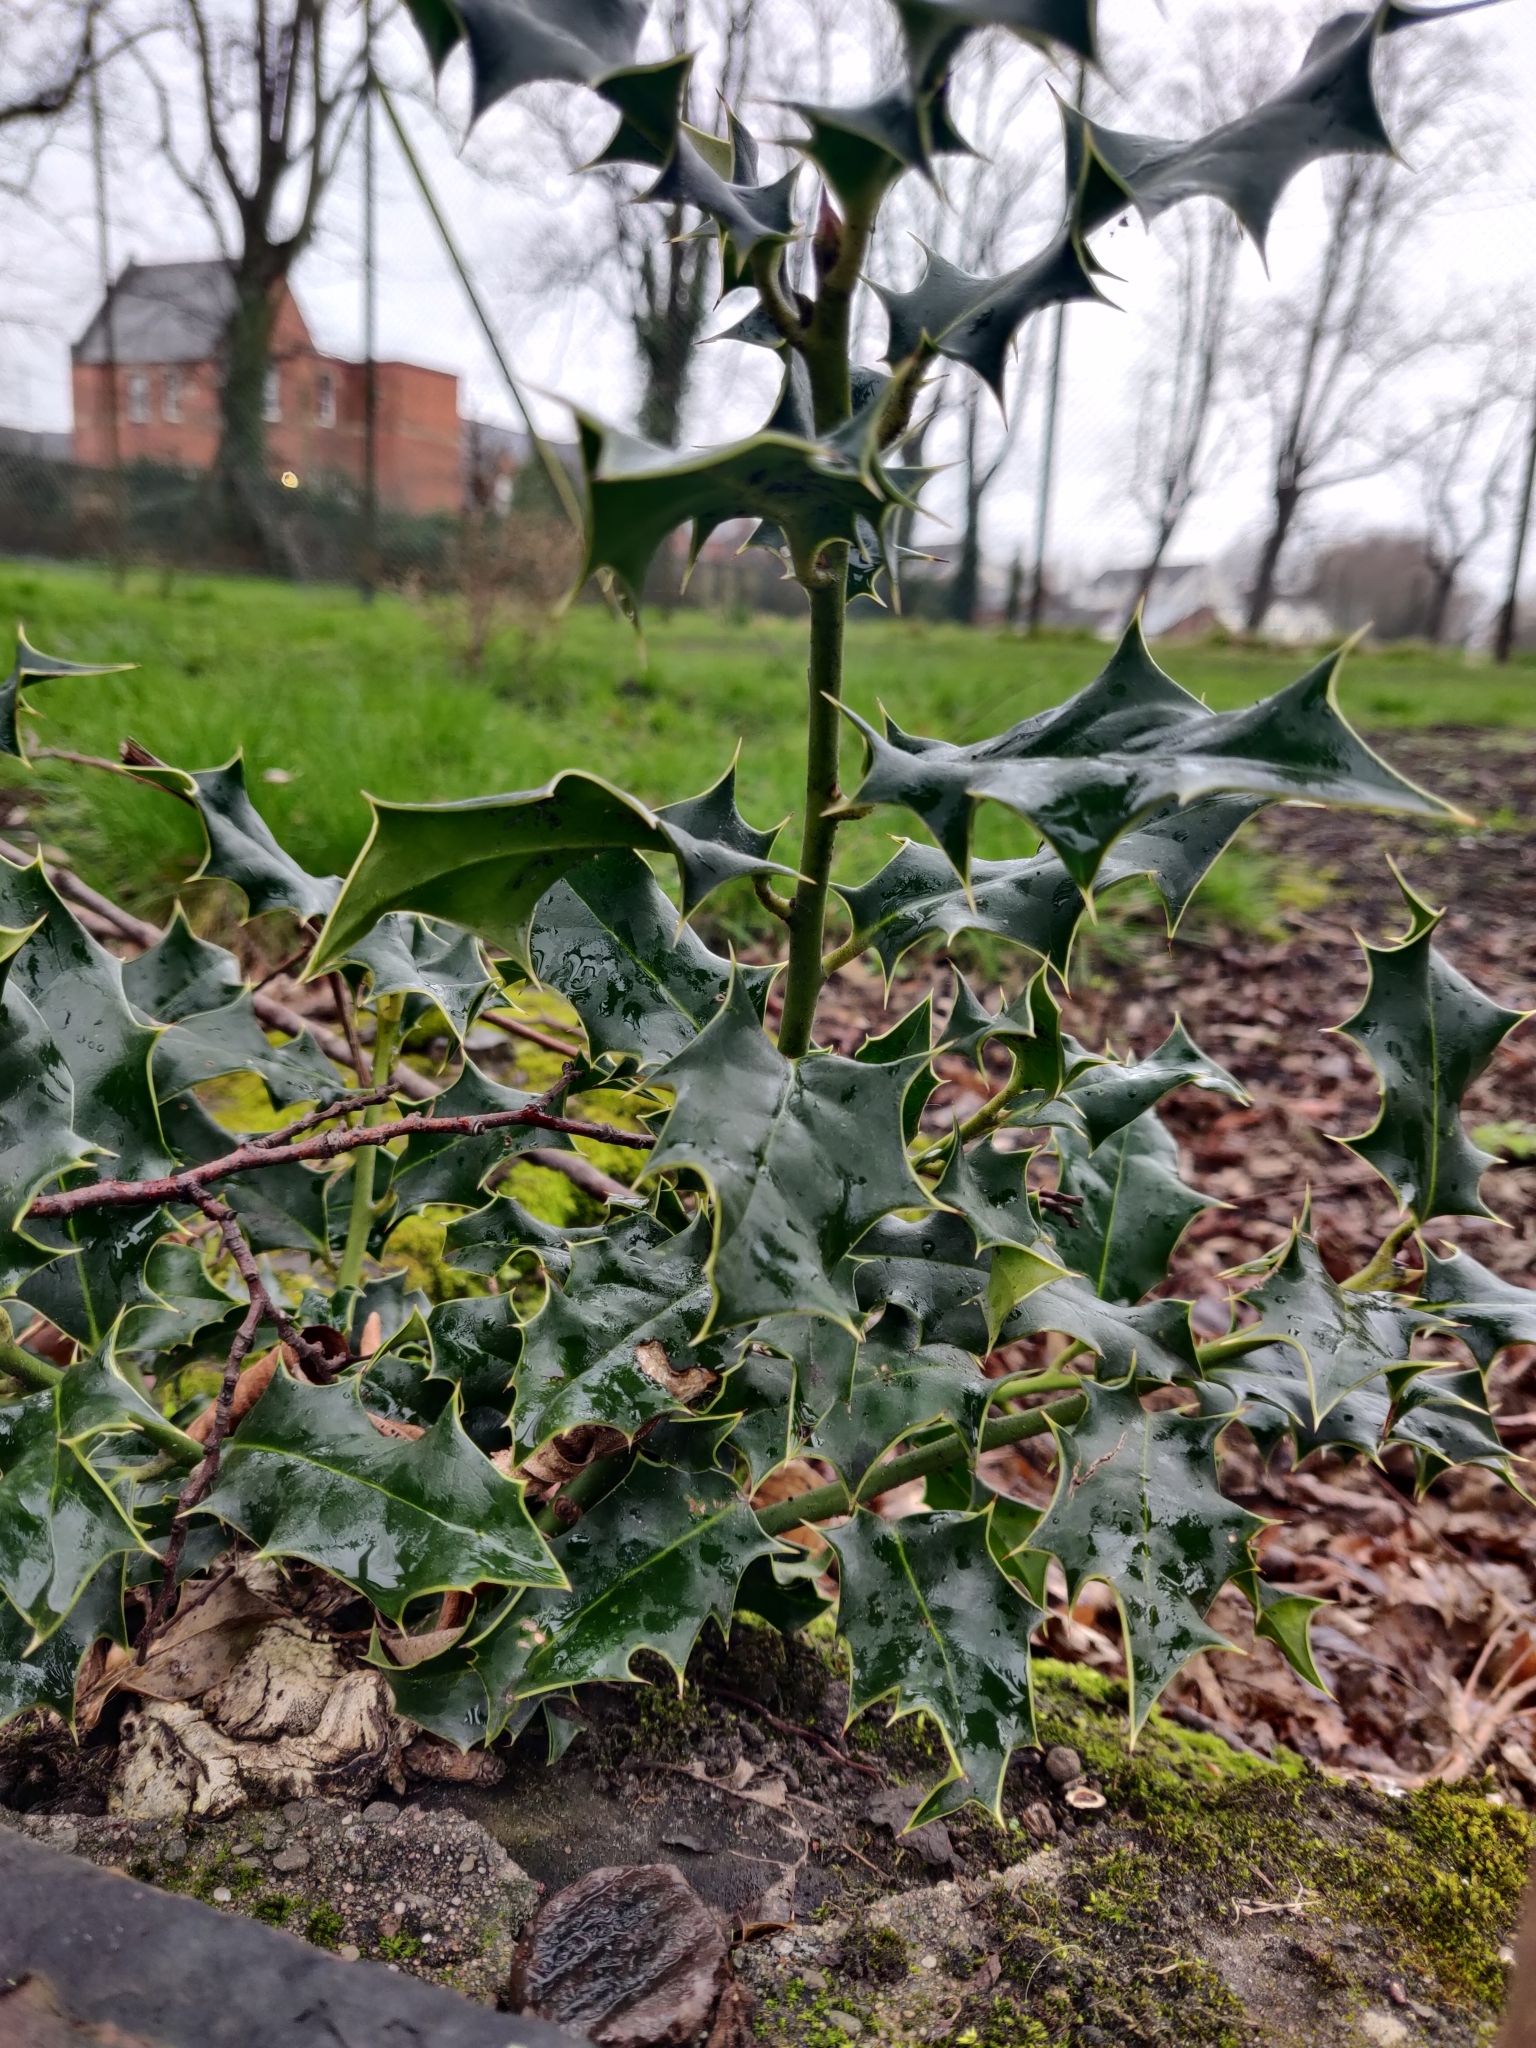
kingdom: Plantae
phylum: Tracheophyta
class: Magnoliopsida
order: Aquifoliales
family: Aquifoliaceae
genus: Ilex
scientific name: Ilex aquifolium
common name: English holly
